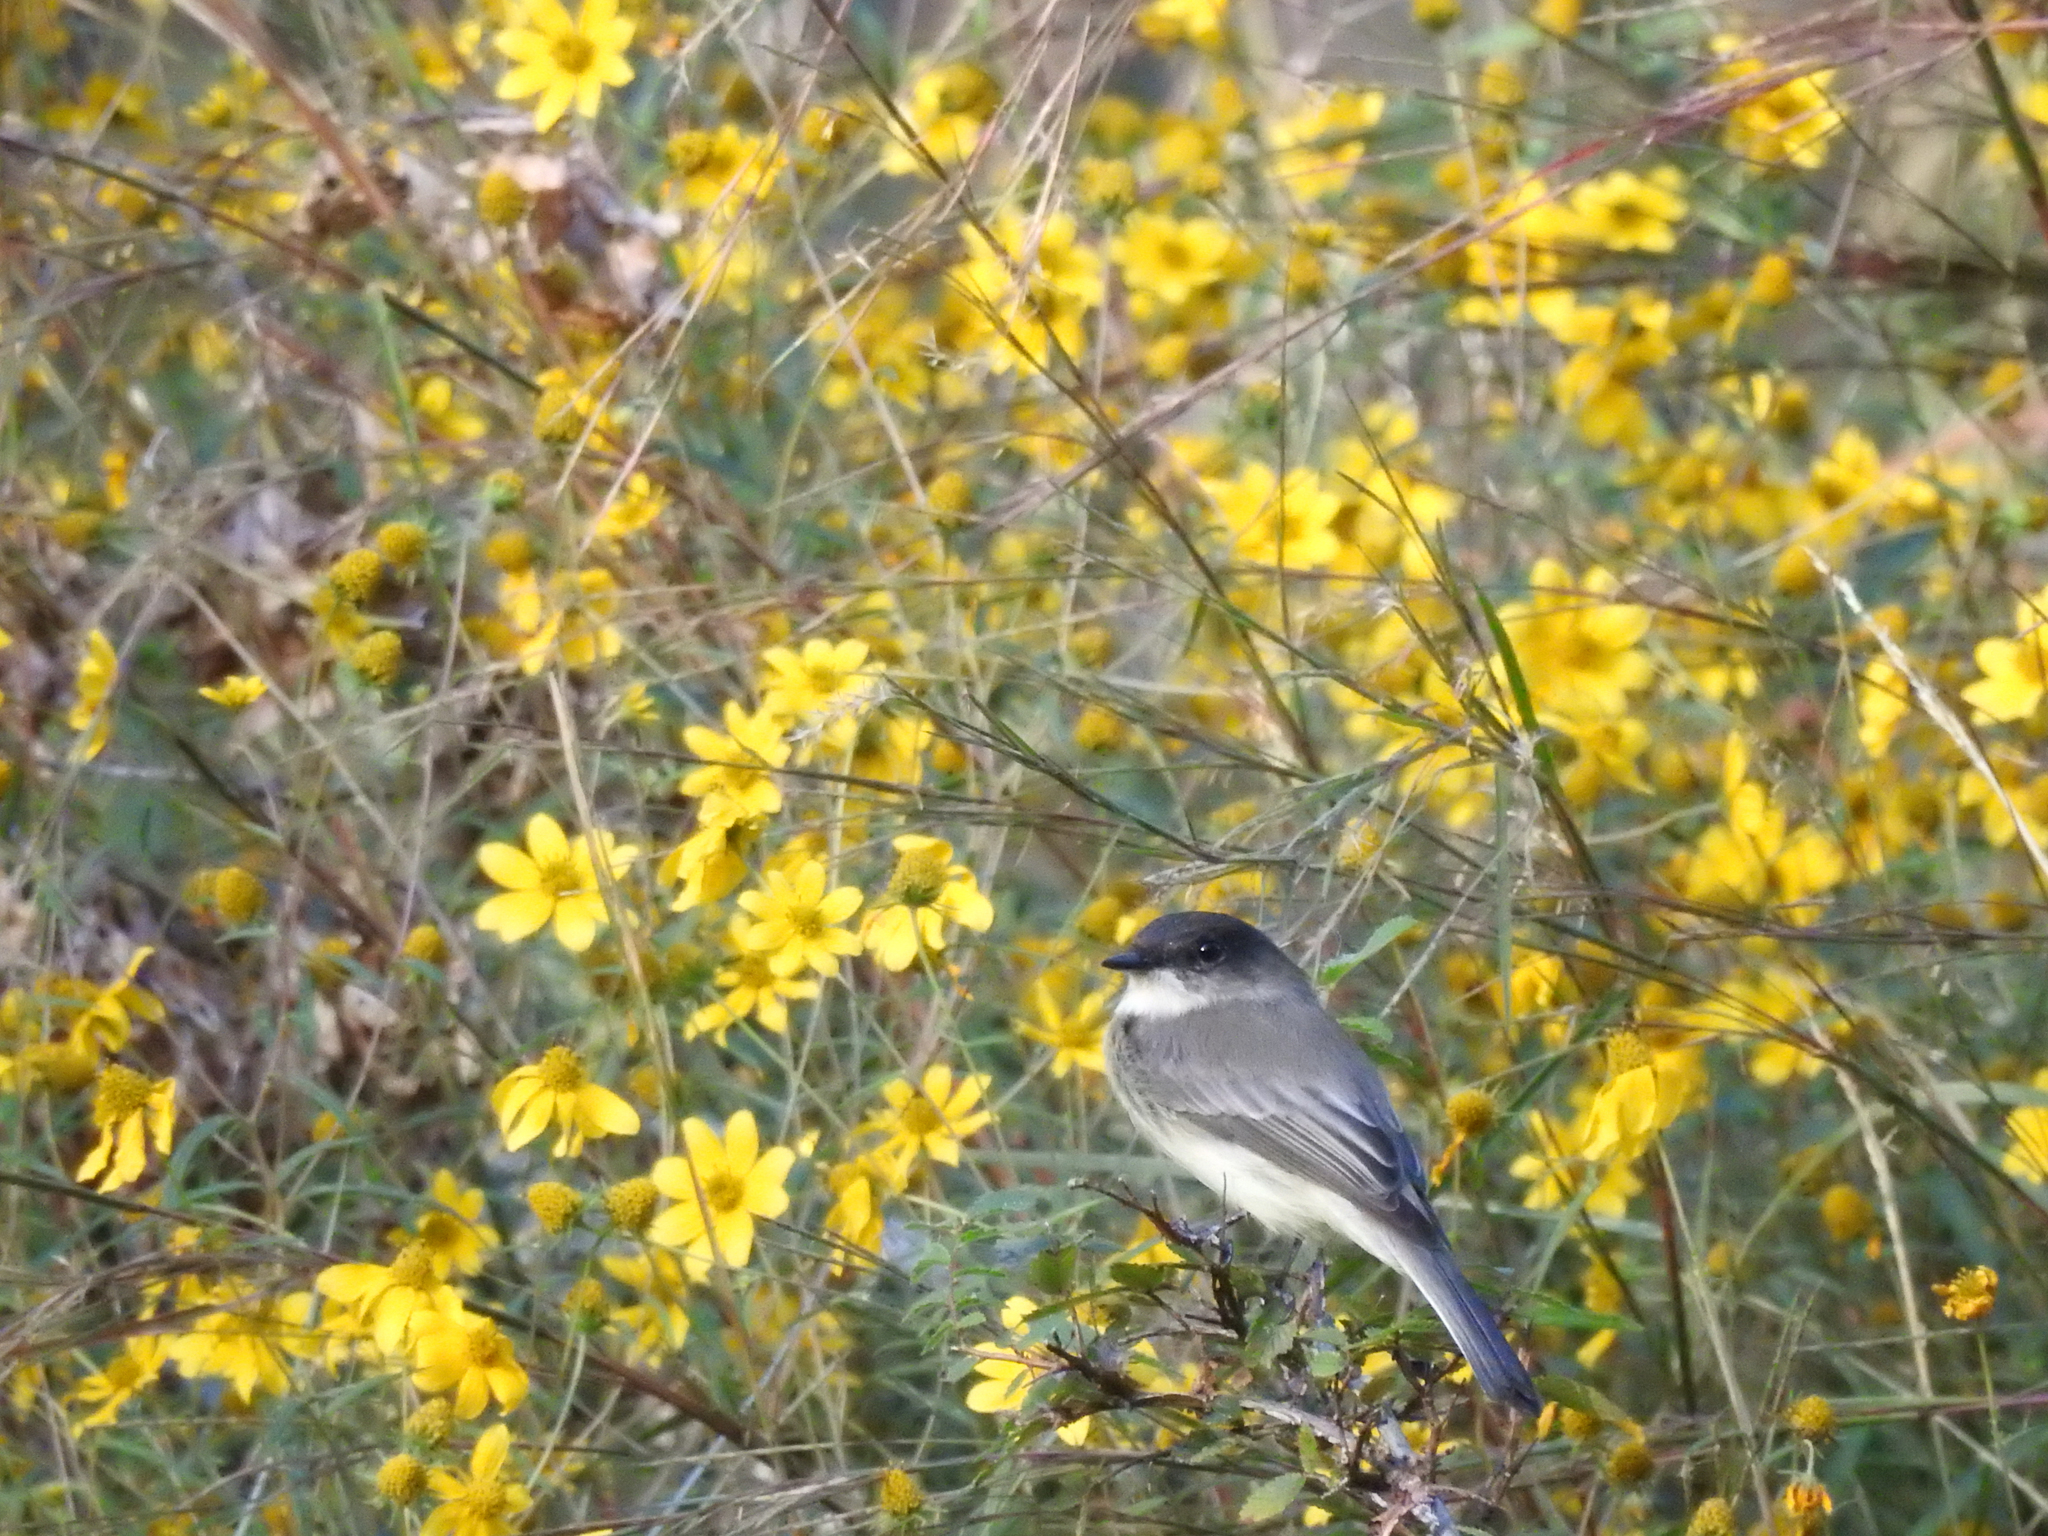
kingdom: Animalia
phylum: Chordata
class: Aves
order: Passeriformes
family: Tyrannidae
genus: Sayornis
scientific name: Sayornis phoebe
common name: Eastern phoebe
